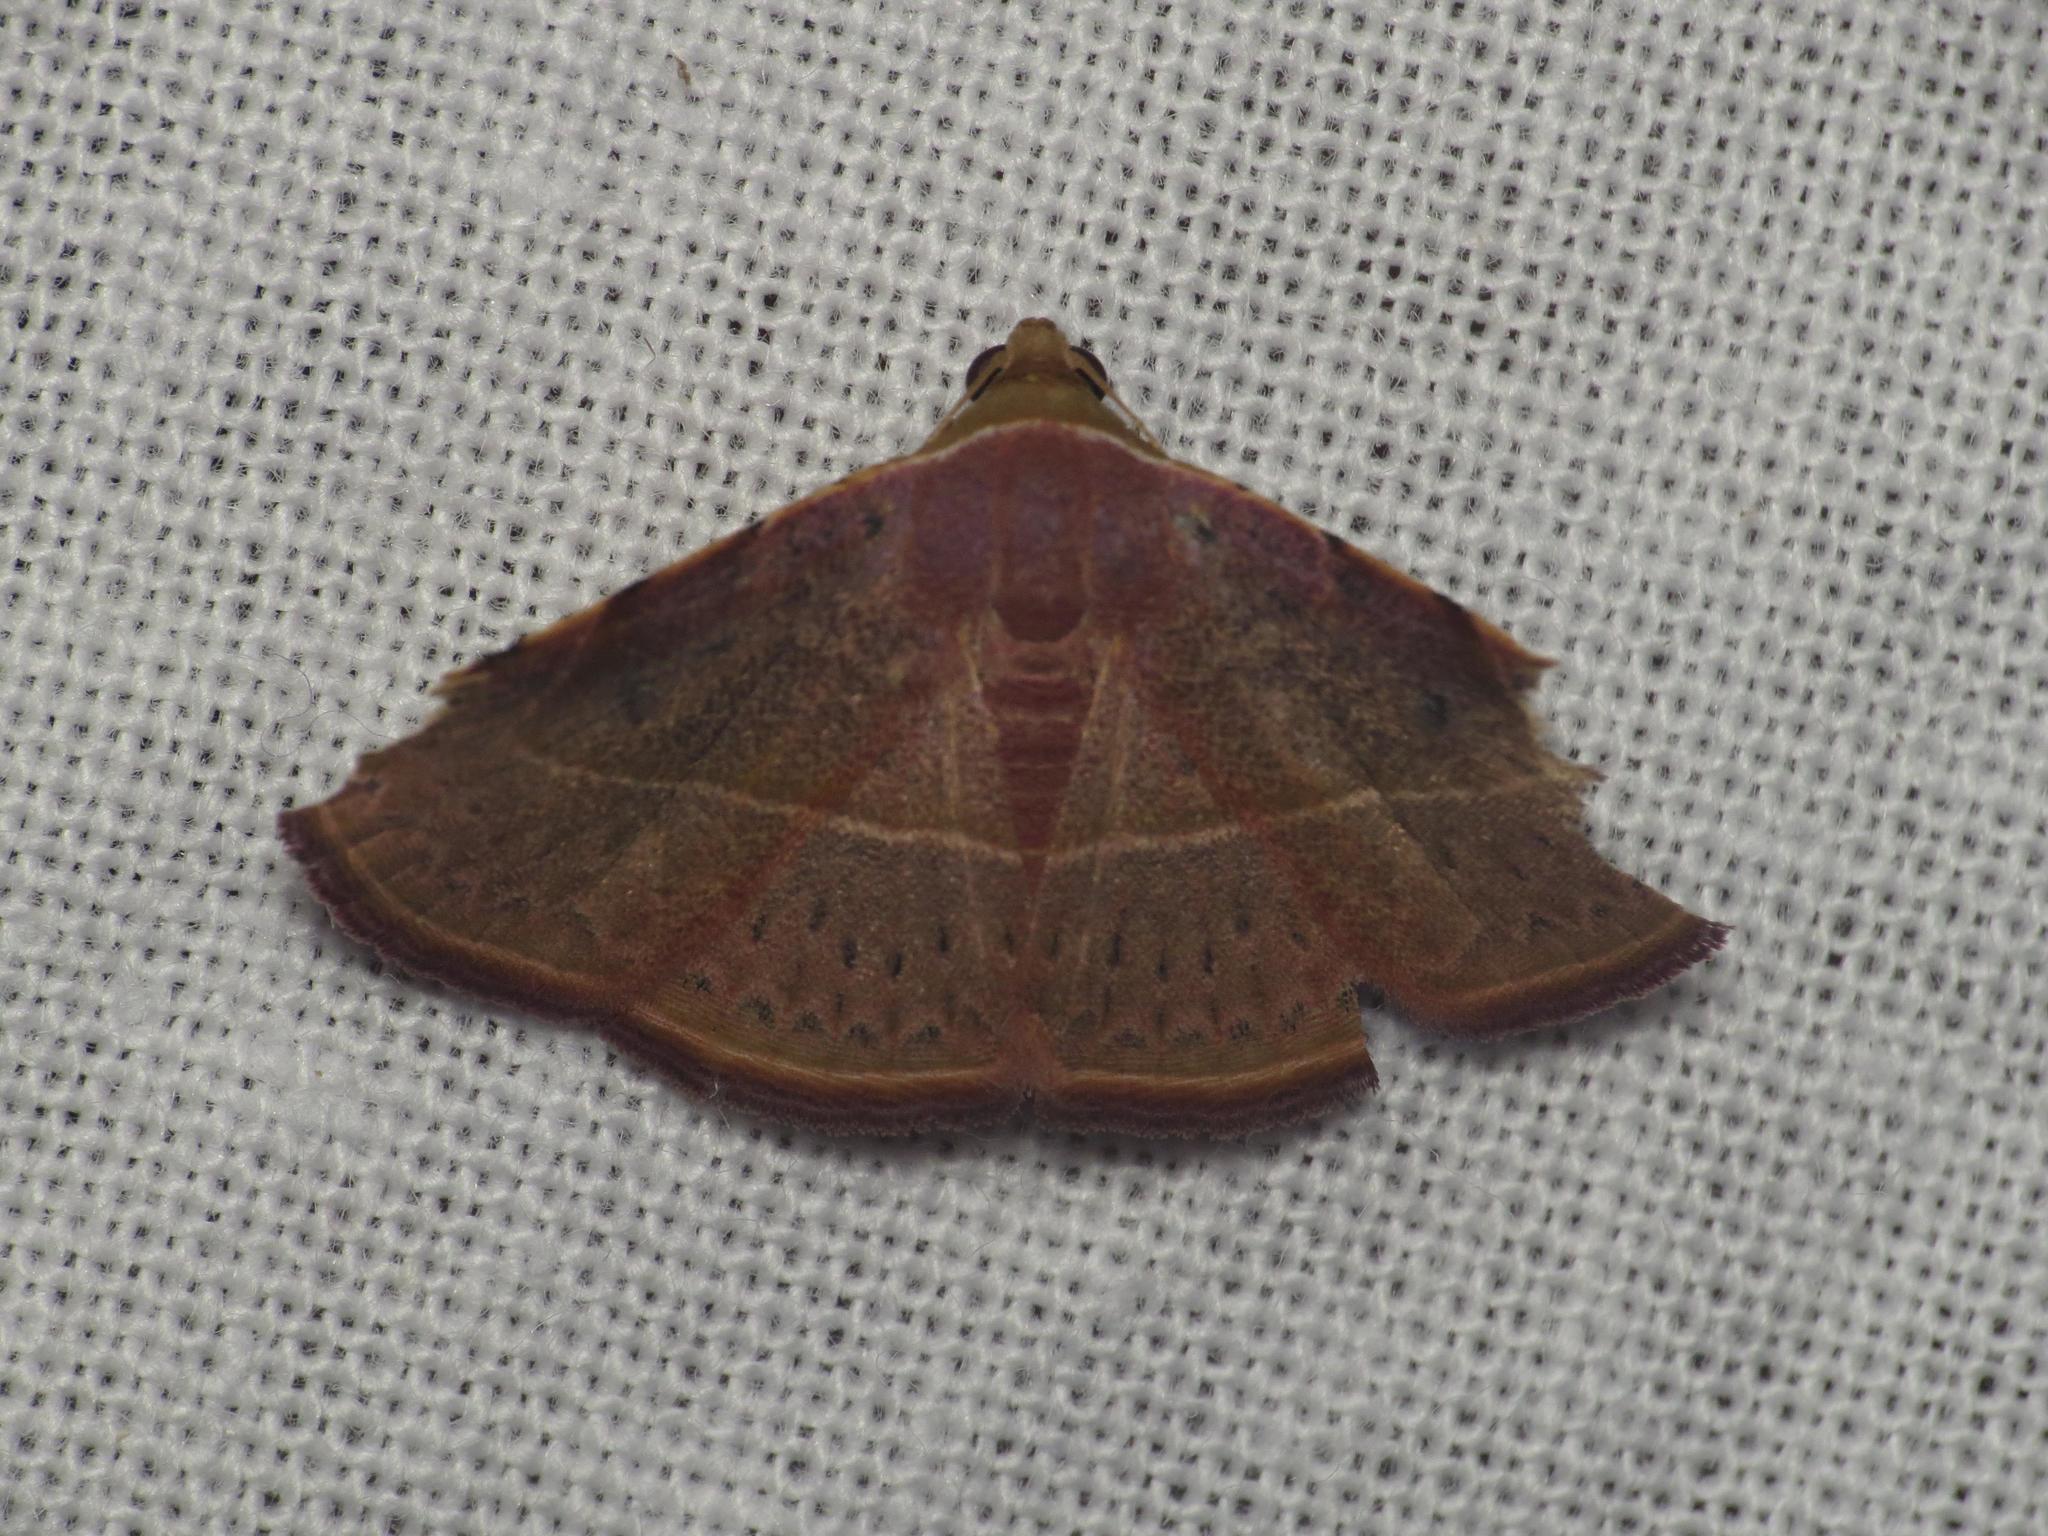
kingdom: Animalia
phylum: Arthropoda
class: Insecta
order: Lepidoptera
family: Noctuidae
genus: Eublemma
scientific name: Eublemma
